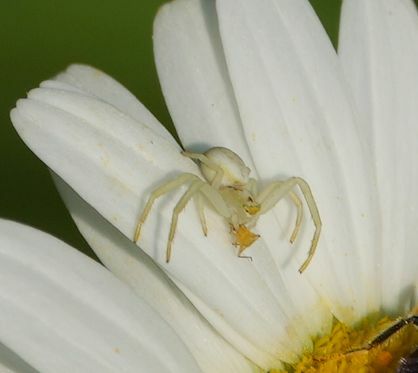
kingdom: Animalia
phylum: Arthropoda
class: Arachnida
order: Araneae
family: Thomisidae
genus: Misumena
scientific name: Misumena vatia
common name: Goldenrod crab spider
